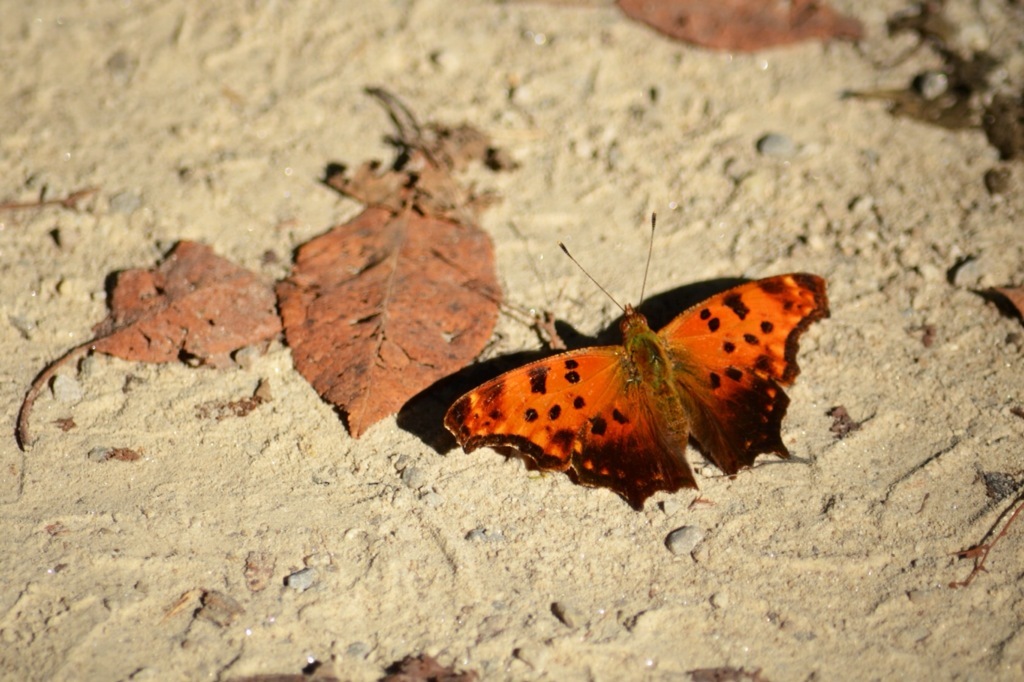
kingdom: Animalia
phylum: Arthropoda
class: Insecta
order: Lepidoptera
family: Nymphalidae
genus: Polygonia
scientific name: Polygonia comma
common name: Eastern comma
